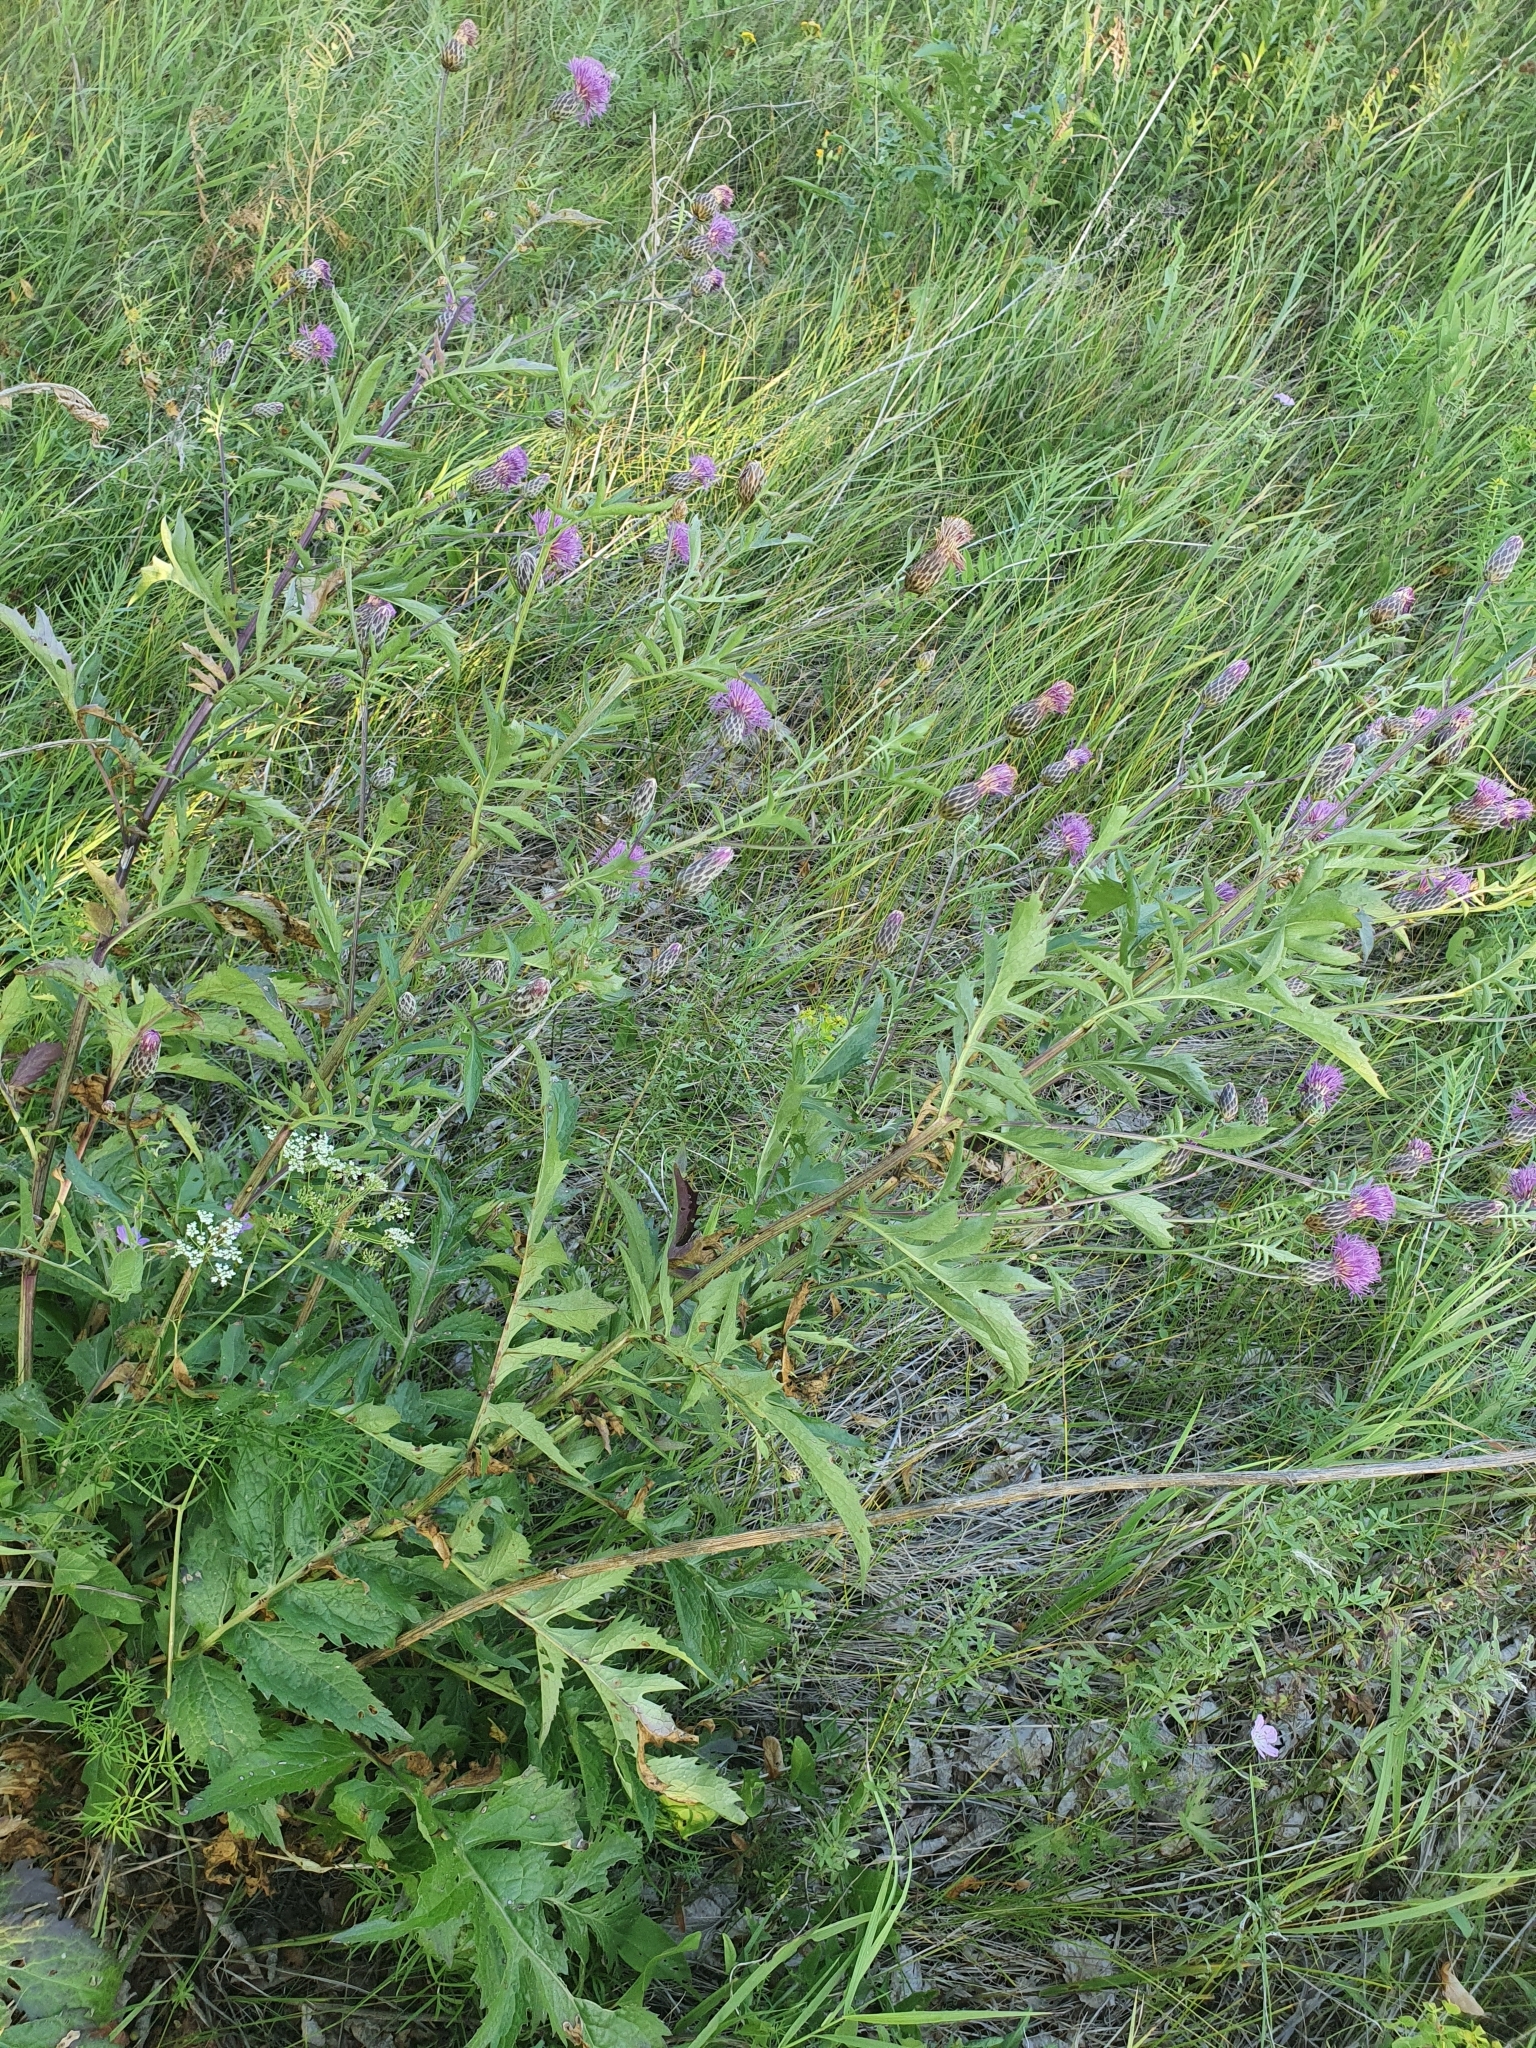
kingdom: Plantae
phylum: Tracheophyta
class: Magnoliopsida
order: Asterales
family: Asteraceae
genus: Serratula
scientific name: Serratula coronata
